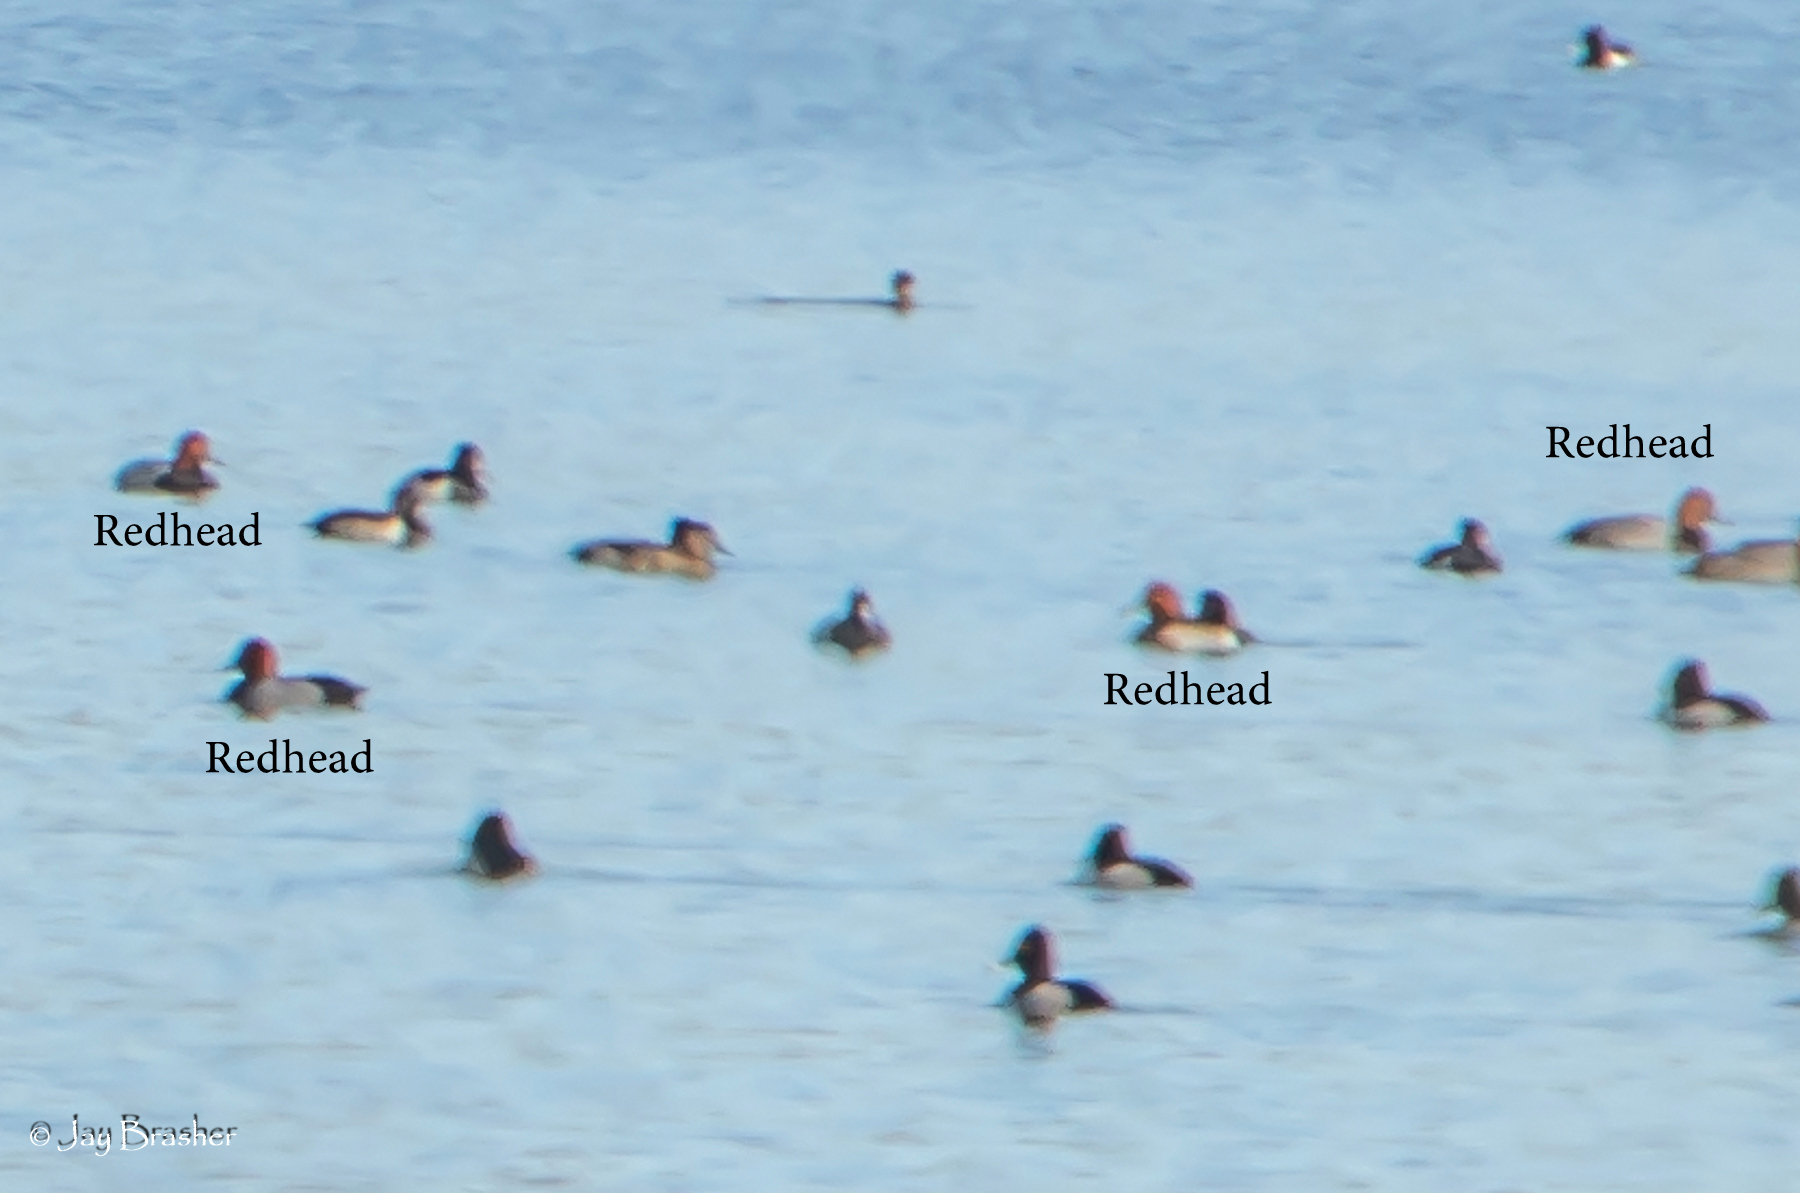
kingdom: Animalia
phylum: Chordata
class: Aves
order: Anseriformes
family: Anatidae
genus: Aythya
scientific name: Aythya americana
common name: Redhead
